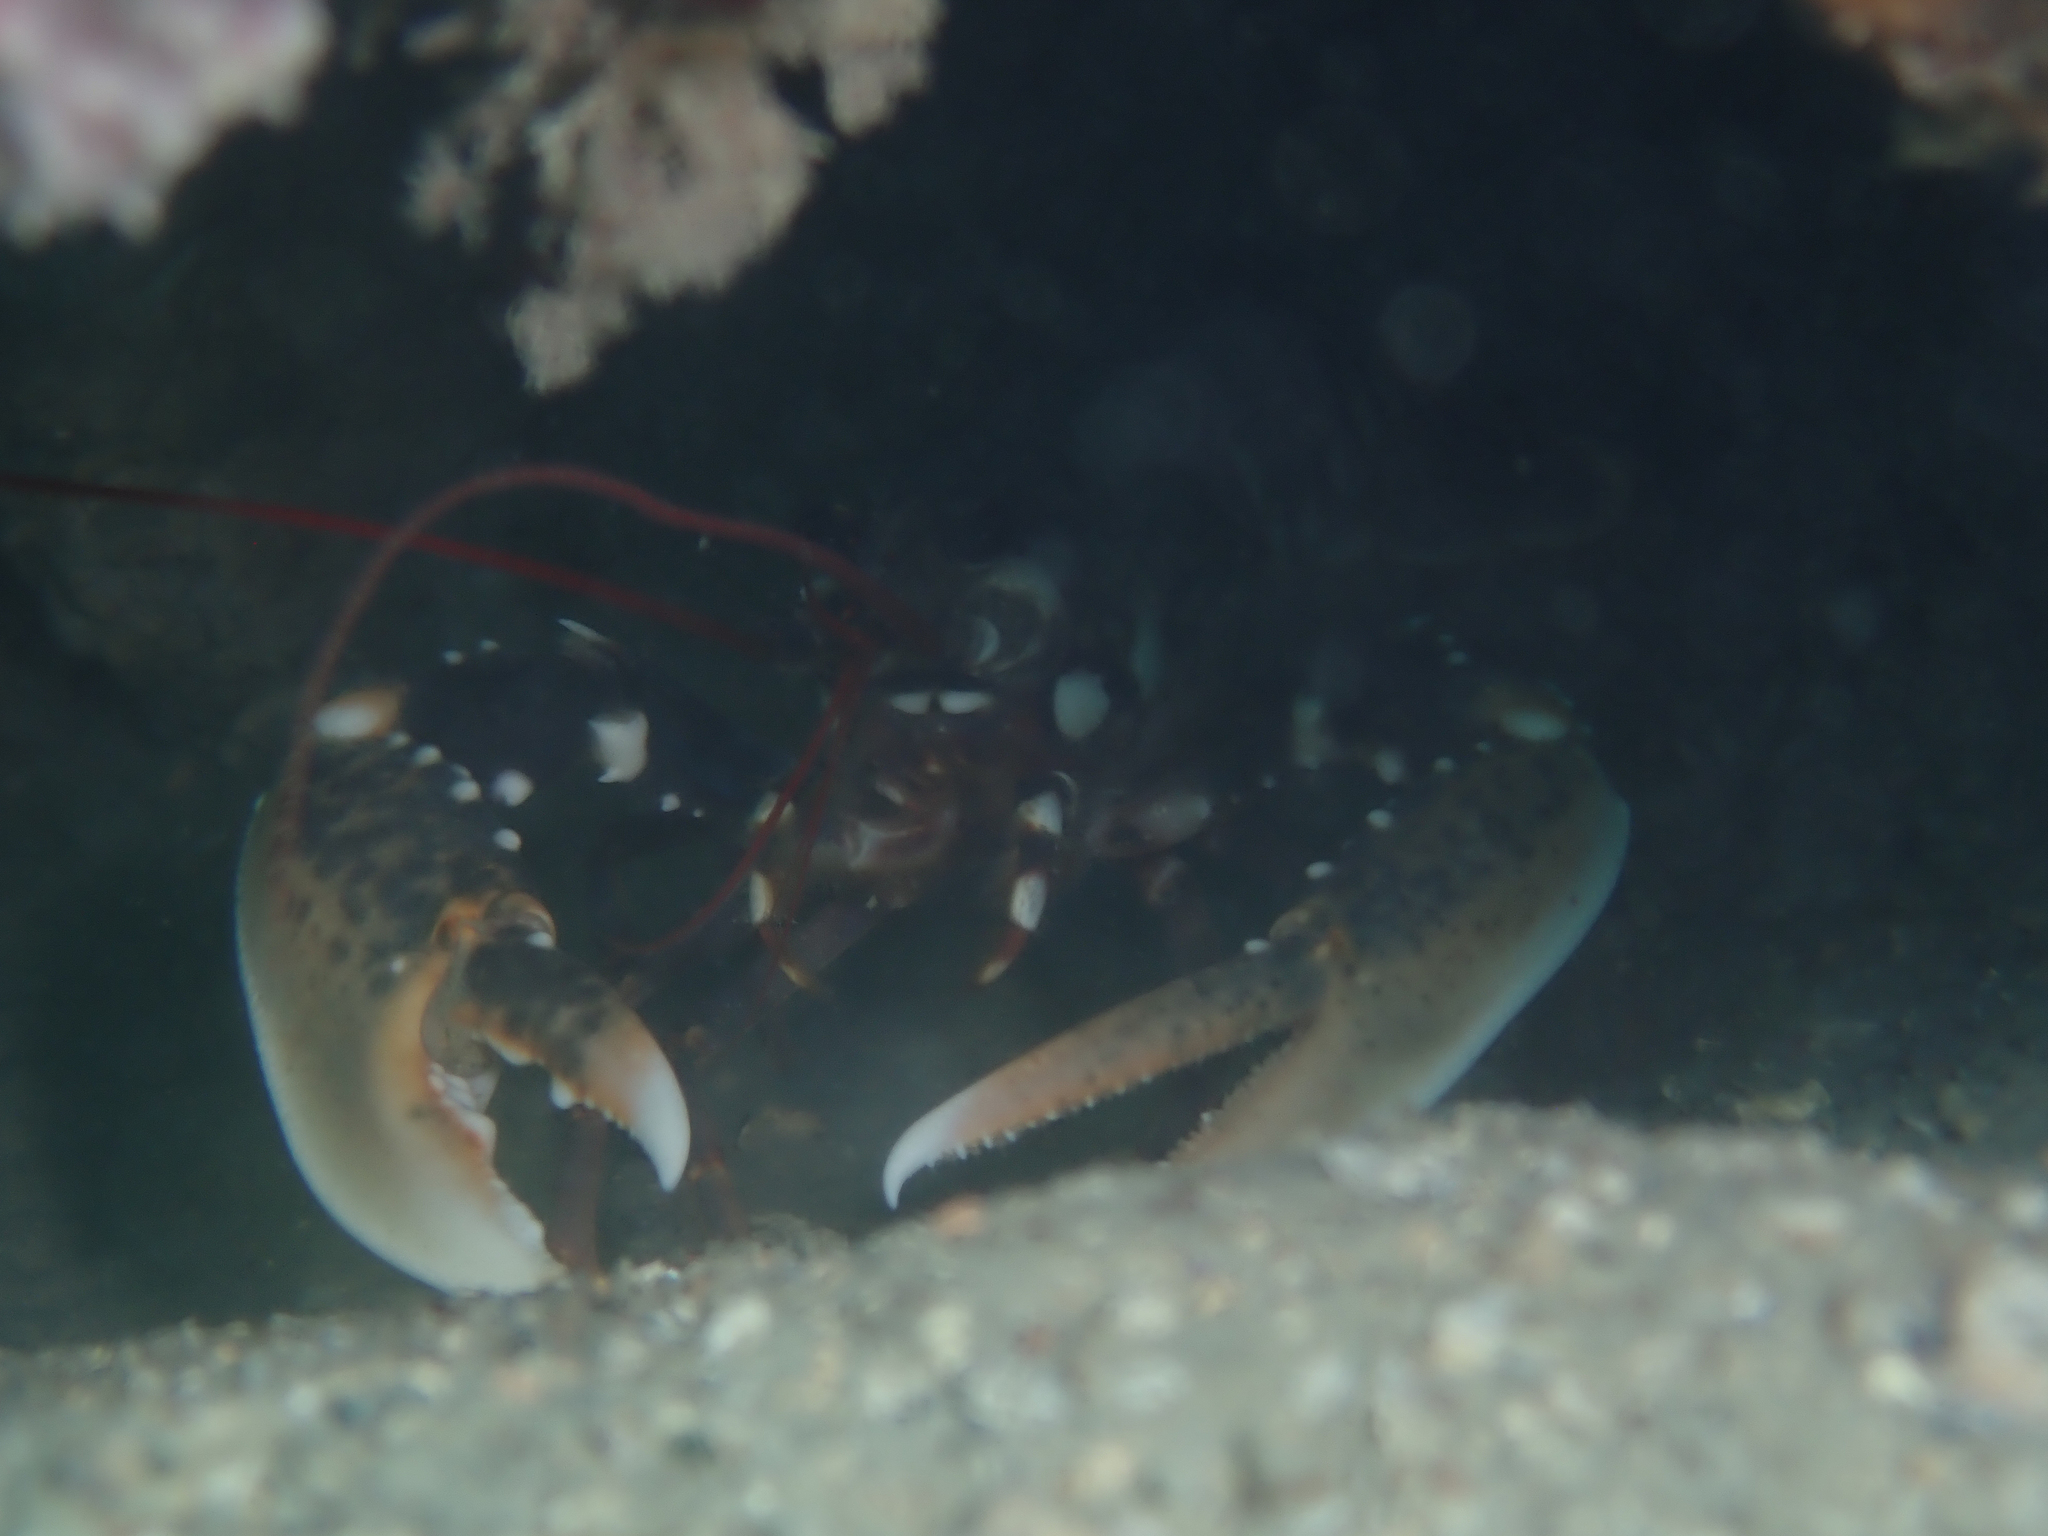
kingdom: Animalia
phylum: Arthropoda
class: Malacostraca
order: Decapoda
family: Nephropidae
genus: Homarus
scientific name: Homarus gammarus
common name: European lobster
